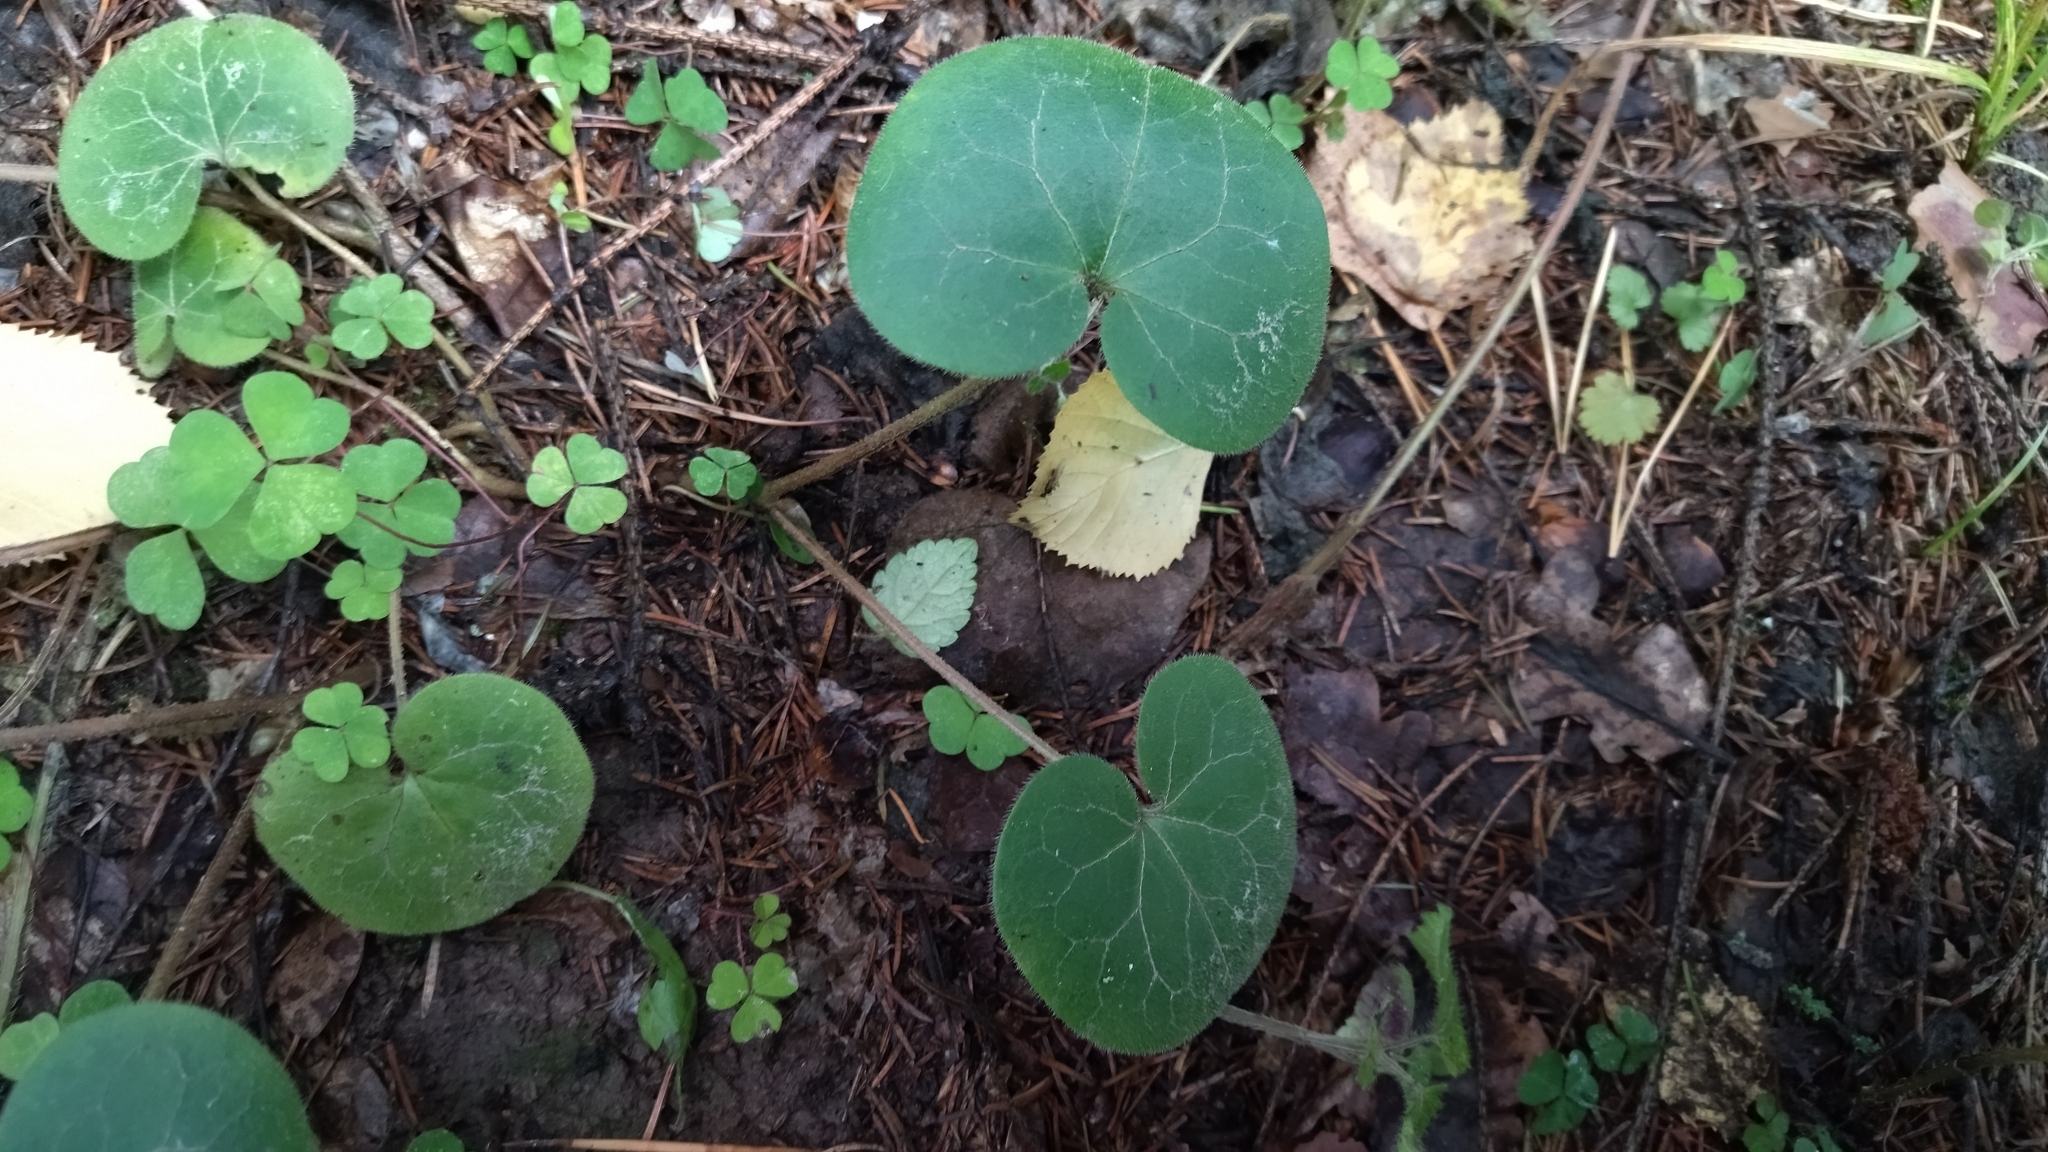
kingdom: Plantae
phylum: Tracheophyta
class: Magnoliopsida
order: Piperales
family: Aristolochiaceae
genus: Asarum
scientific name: Asarum europaeum
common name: Asarabacca
